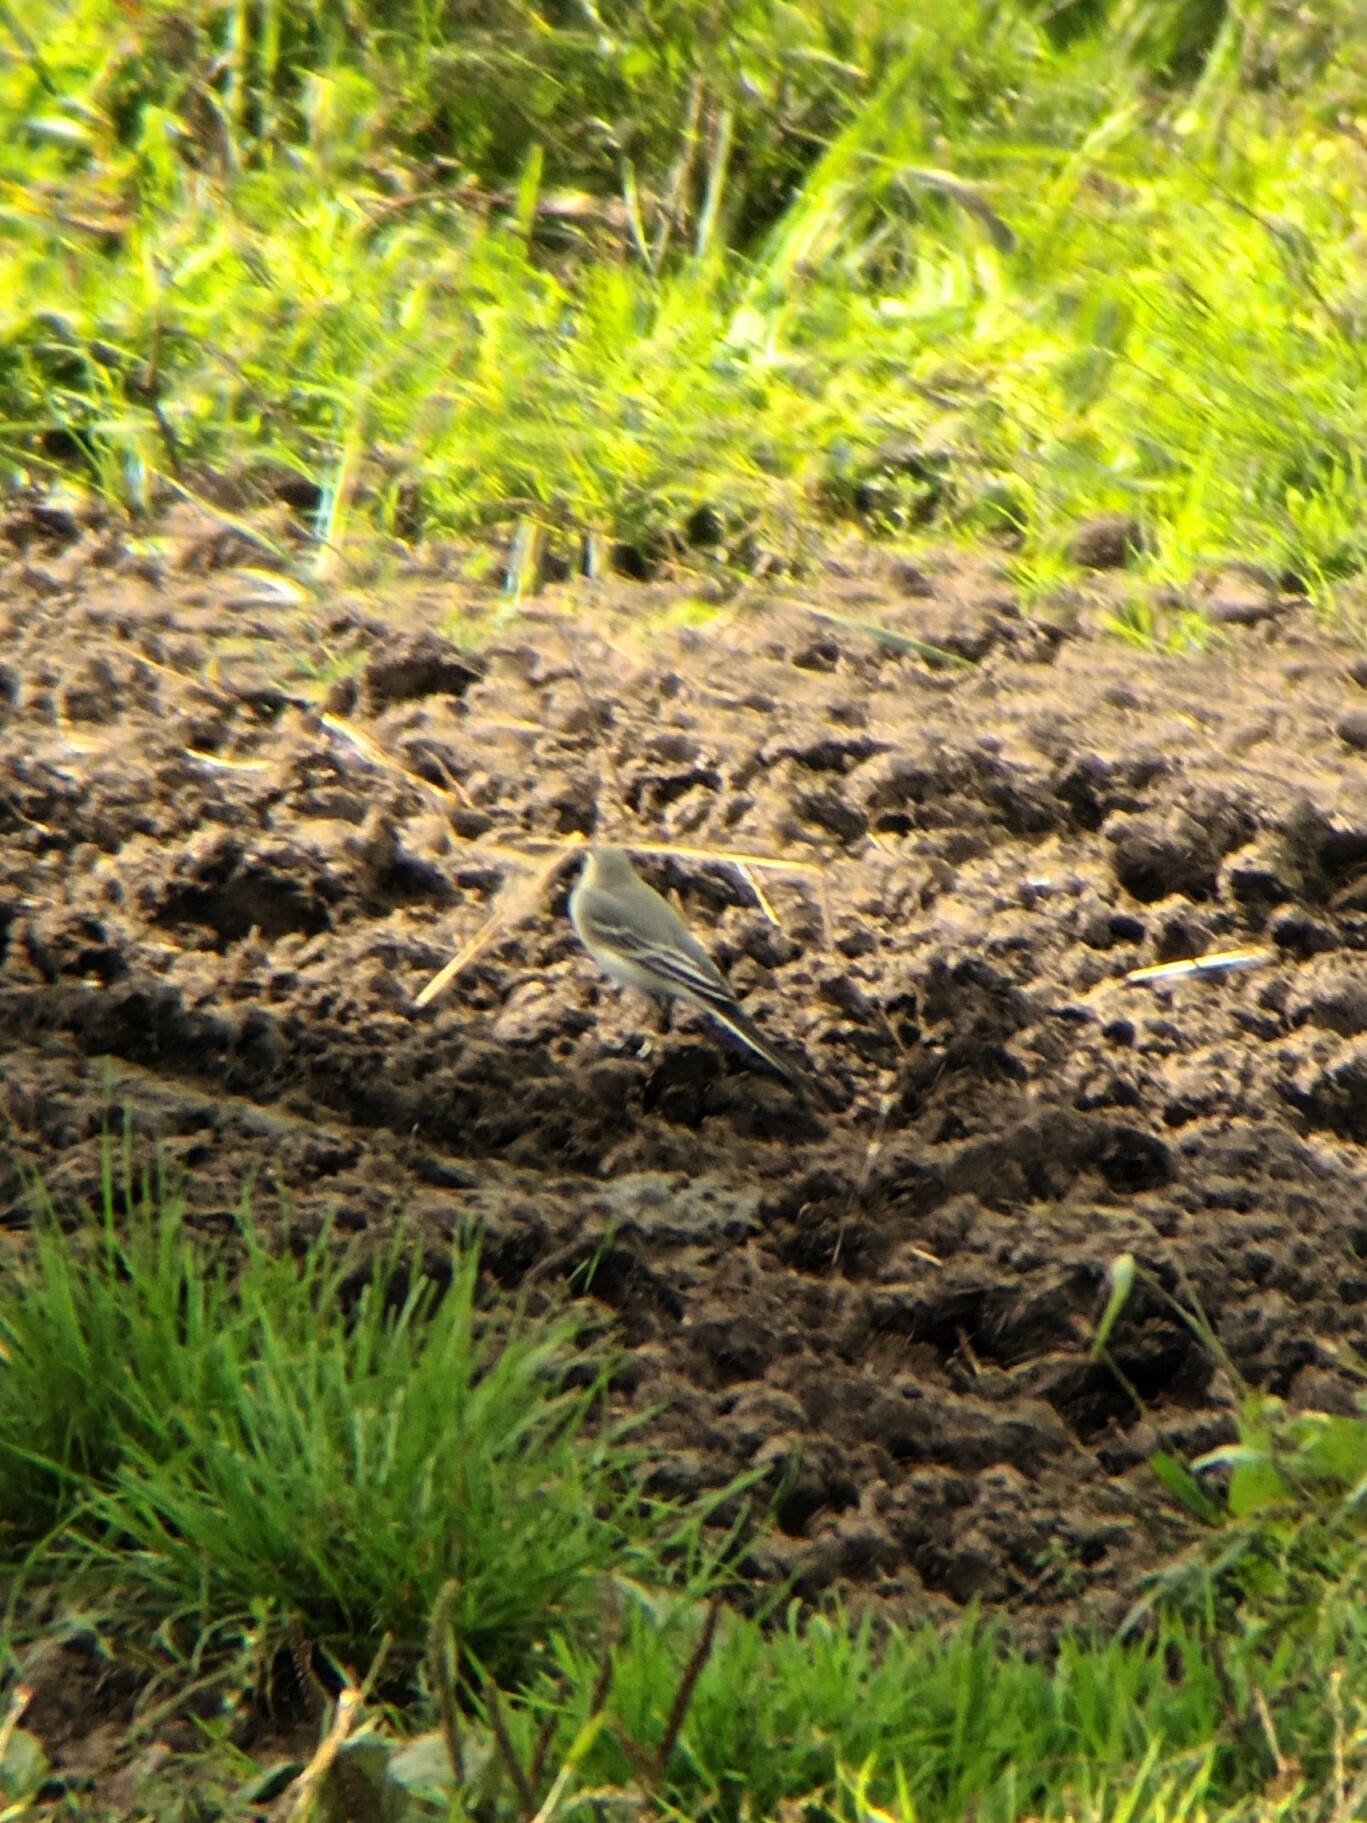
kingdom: Animalia
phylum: Chordata
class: Aves
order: Passeriformes
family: Motacillidae
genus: Motacilla
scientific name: Motacilla alba
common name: White wagtail
